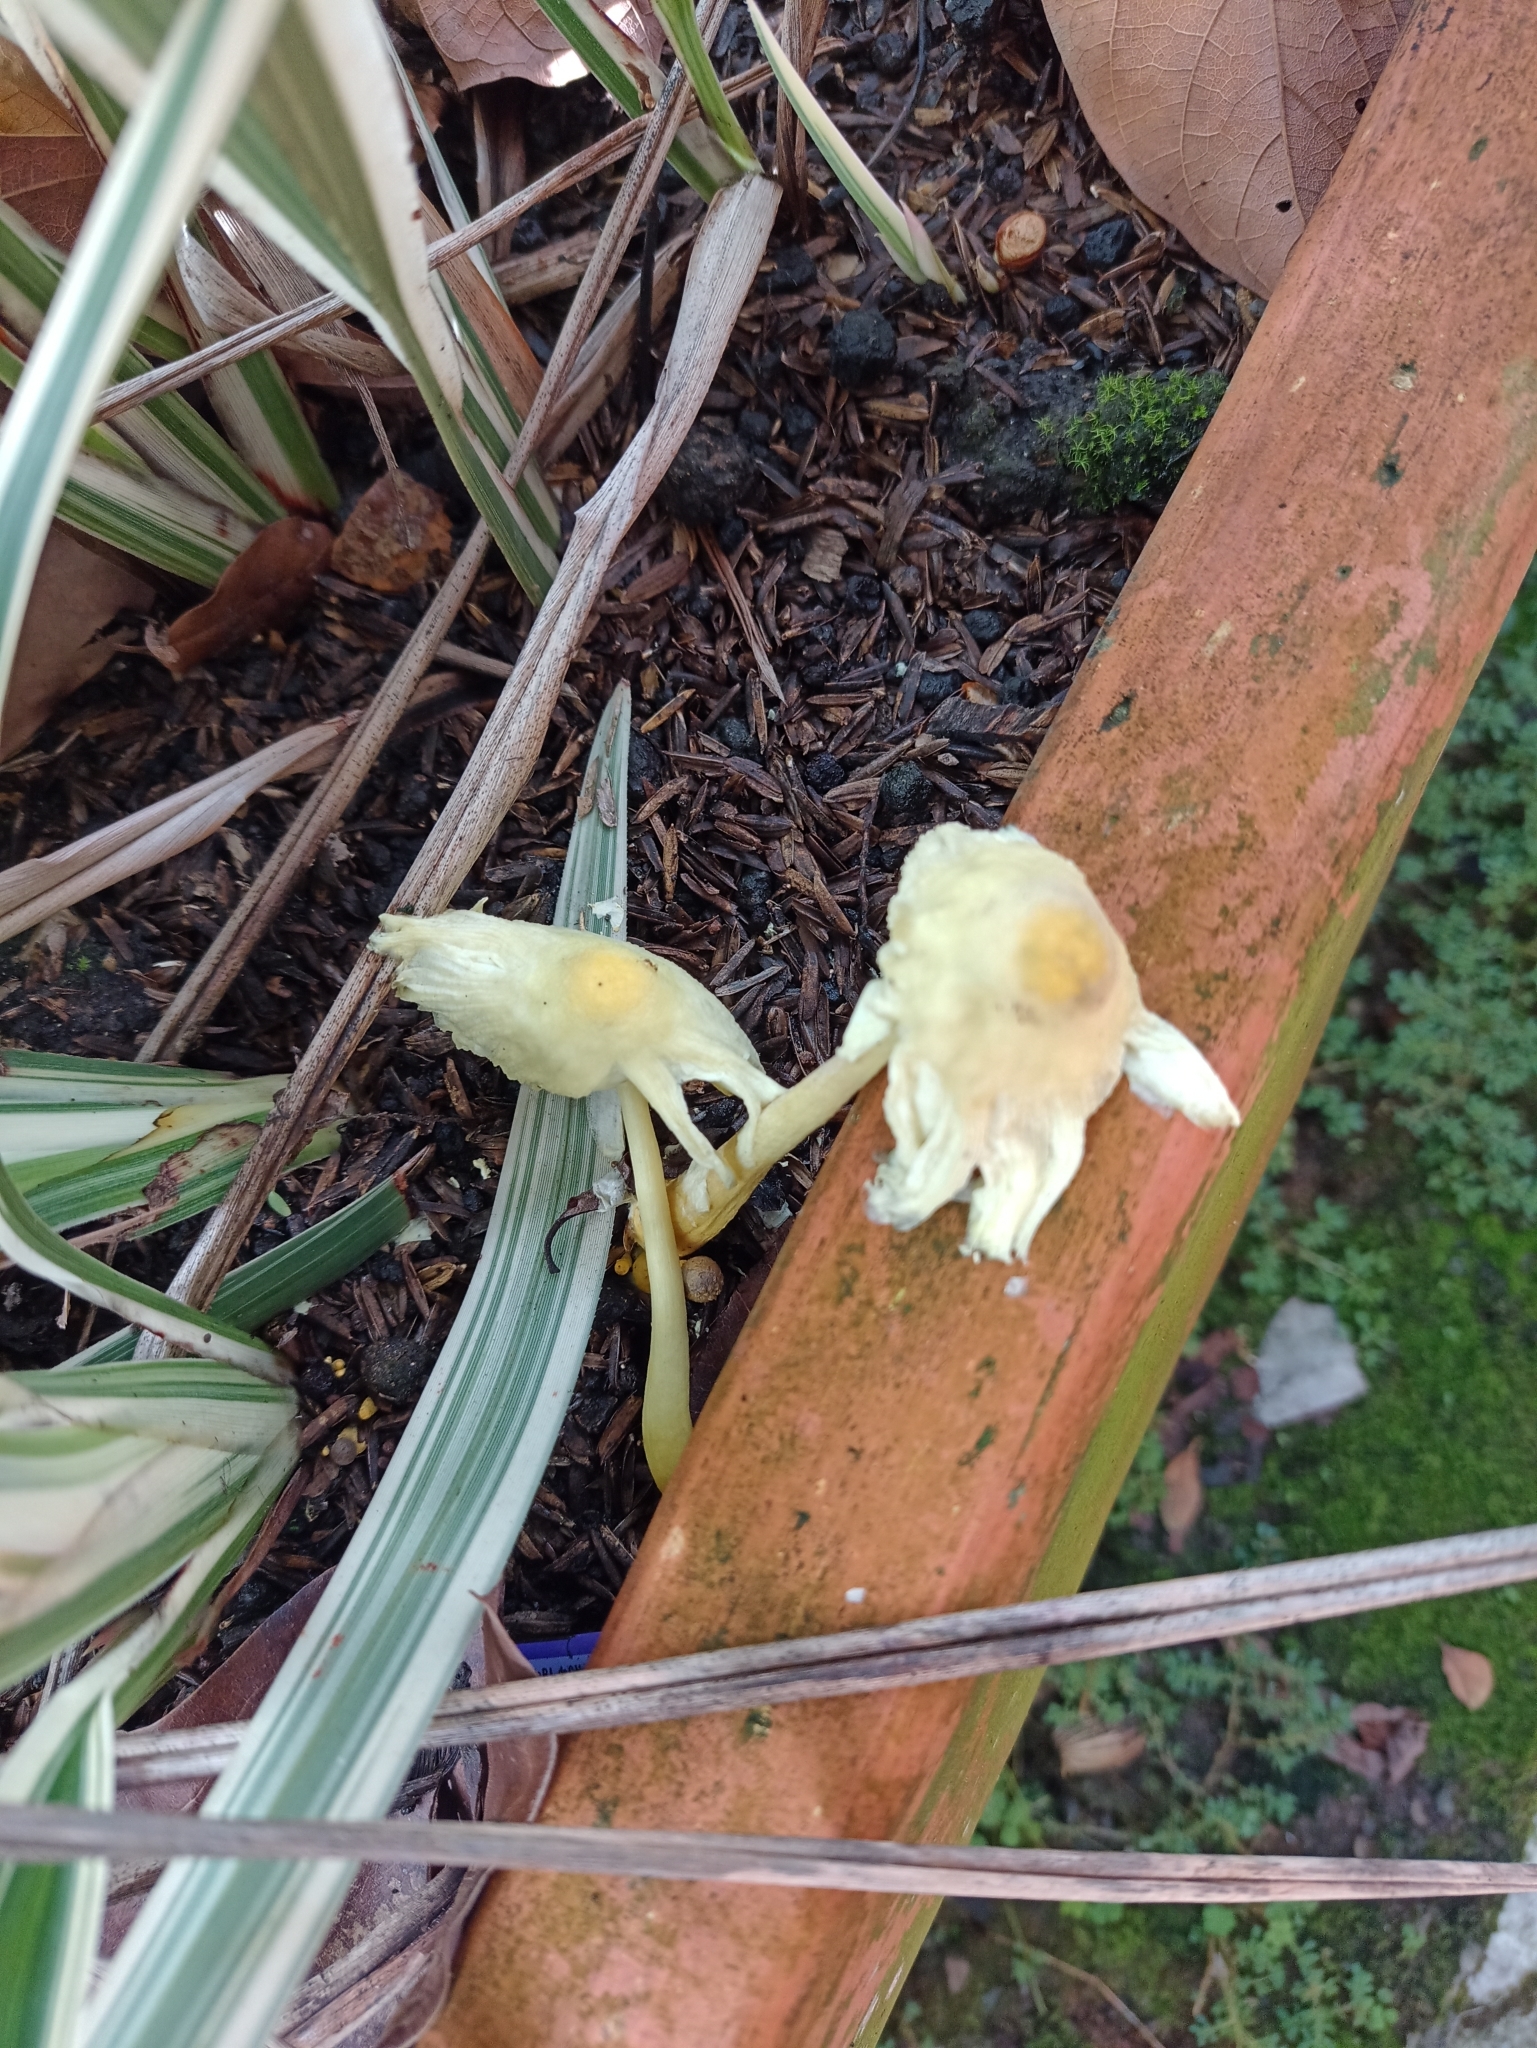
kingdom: Fungi
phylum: Basidiomycota
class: Agaricomycetes
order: Agaricales
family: Agaricaceae
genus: Leucocoprinus
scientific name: Leucocoprinus birnbaumii
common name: Plantpot dapperling
